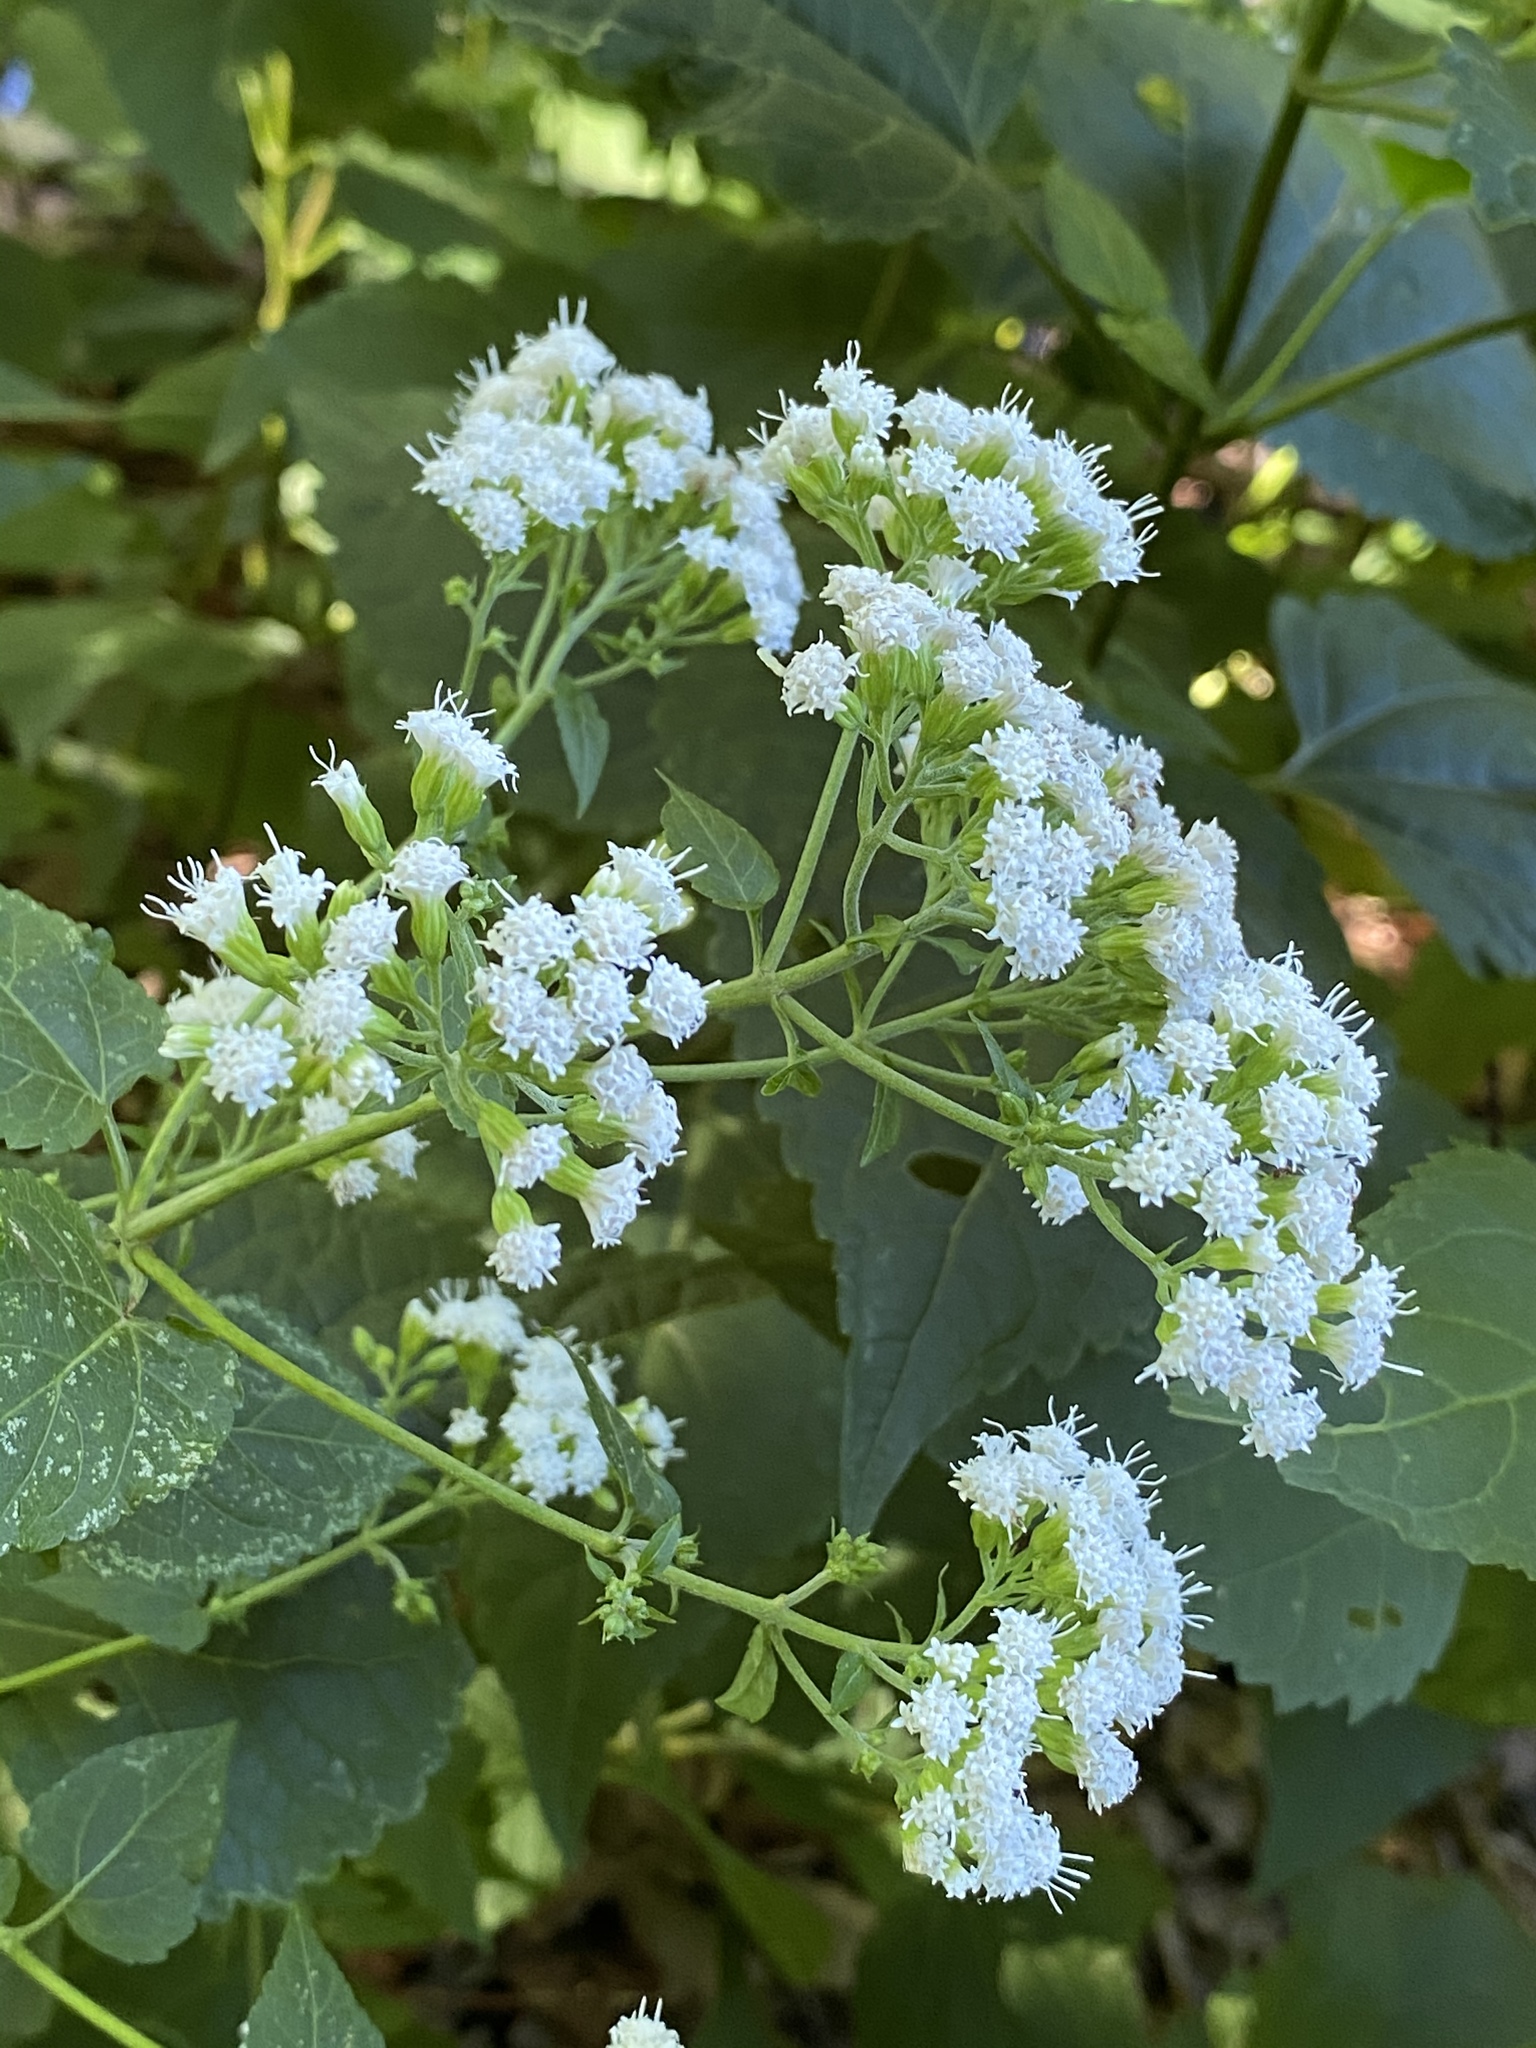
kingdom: Plantae
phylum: Tracheophyta
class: Magnoliopsida
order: Asterales
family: Asteraceae
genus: Ageratina
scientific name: Ageratina altissima
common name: White snakeroot
